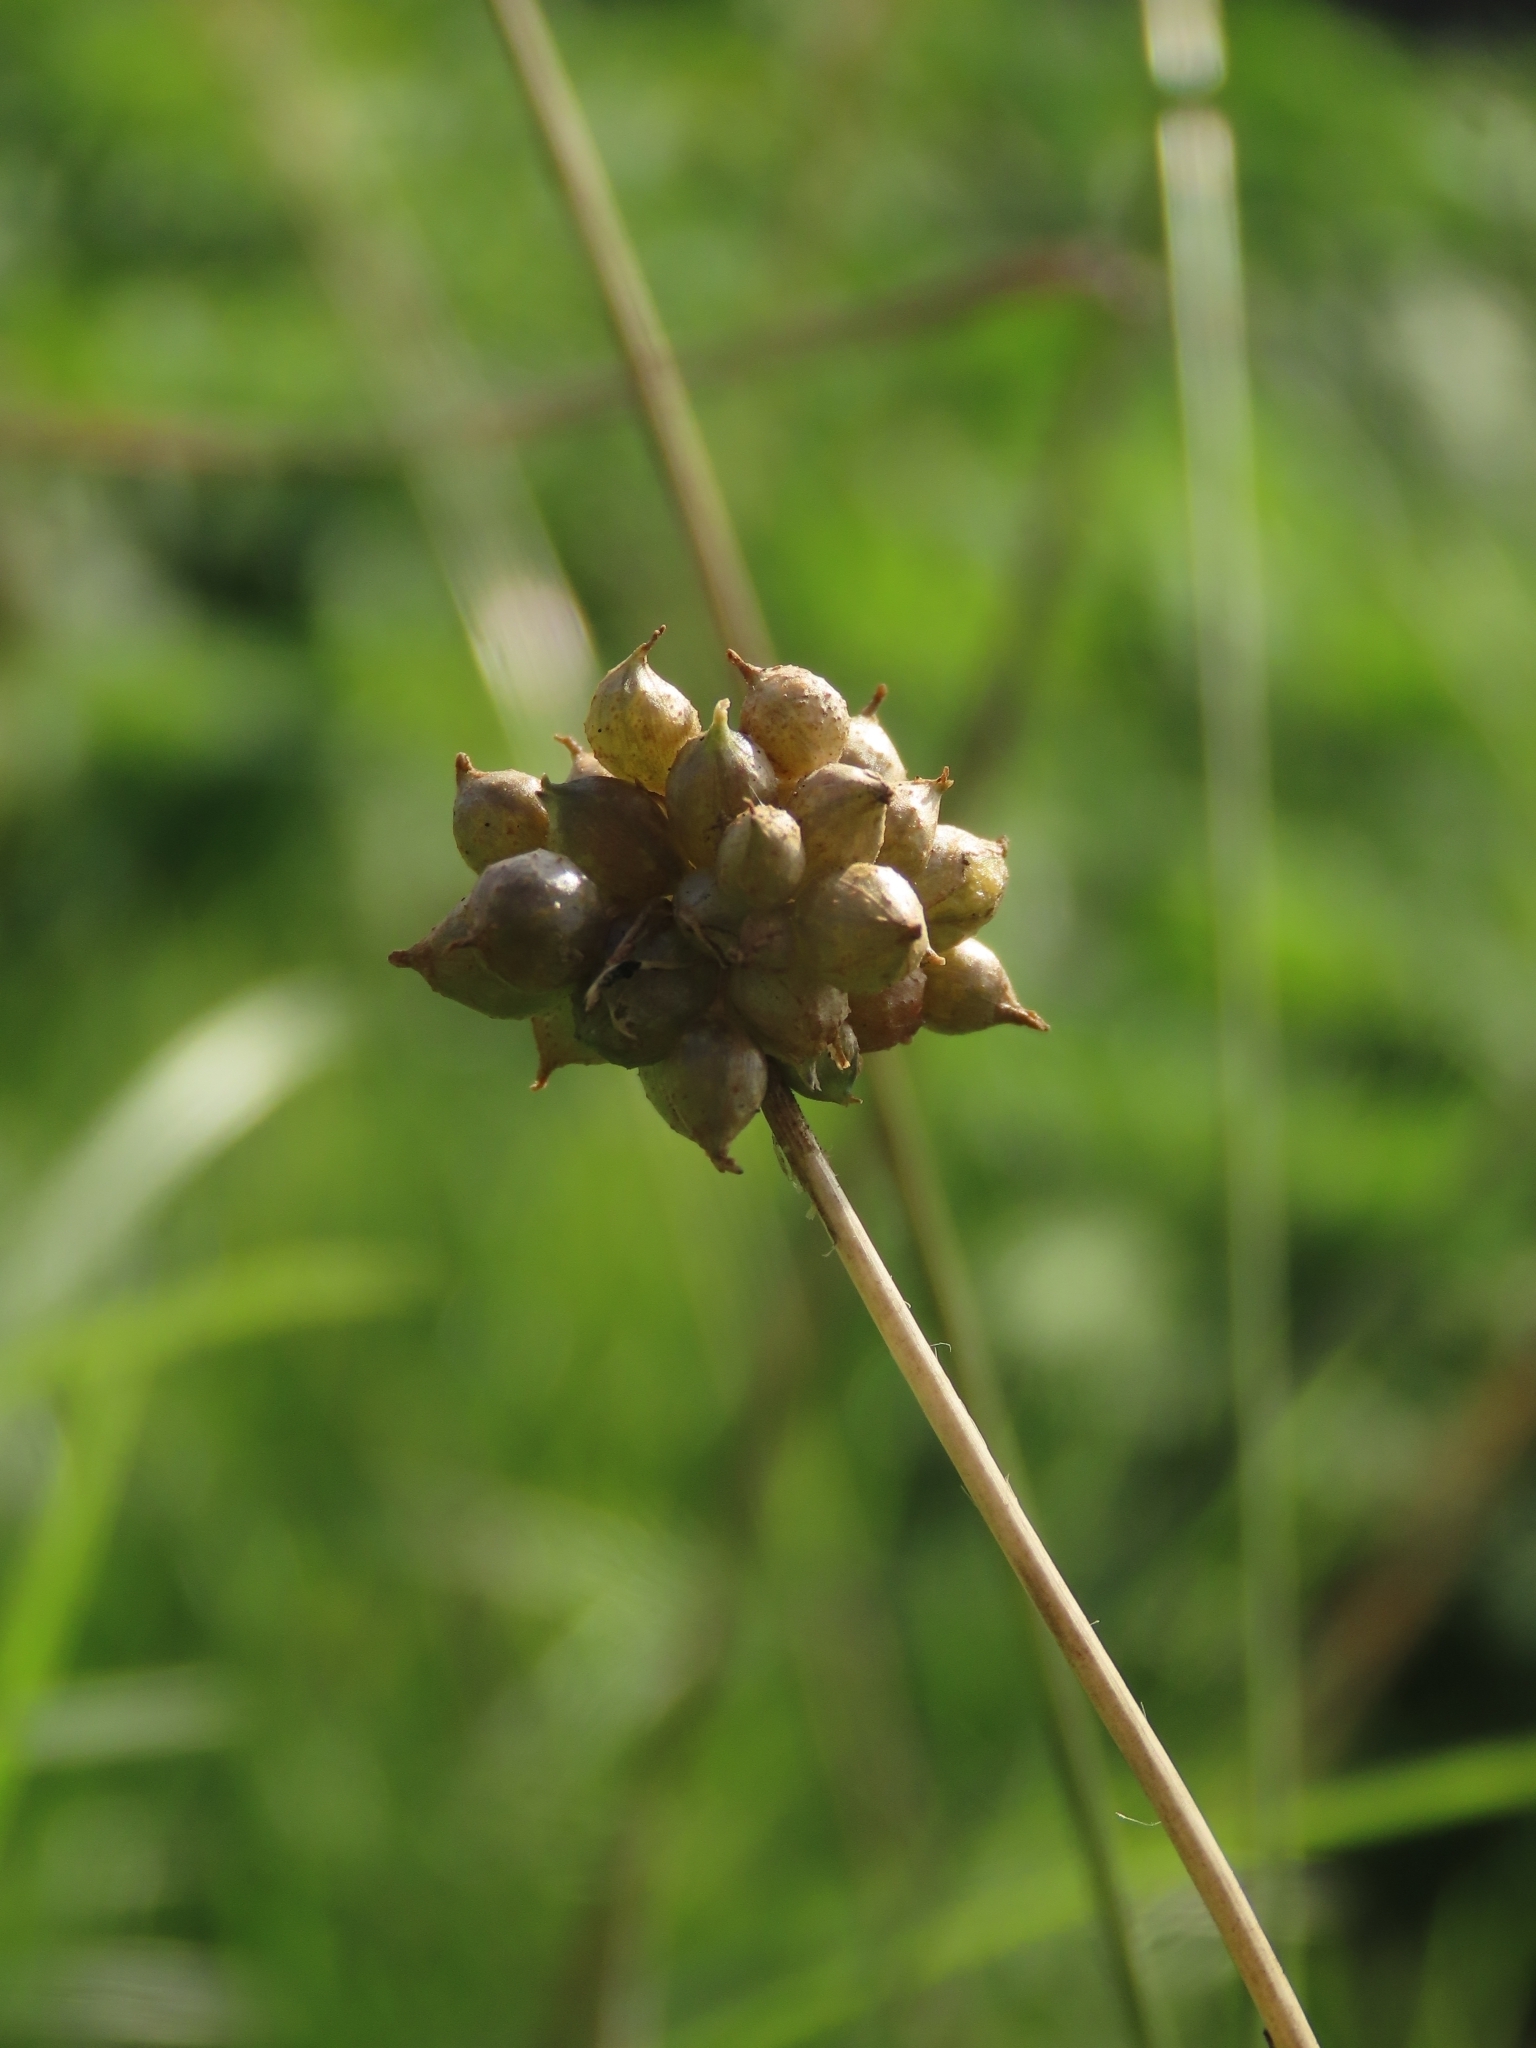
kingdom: Plantae
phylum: Tracheophyta
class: Liliopsida
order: Asparagales
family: Amaryllidaceae
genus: Allium
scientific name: Allium macrostemon
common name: Chinese garlic
